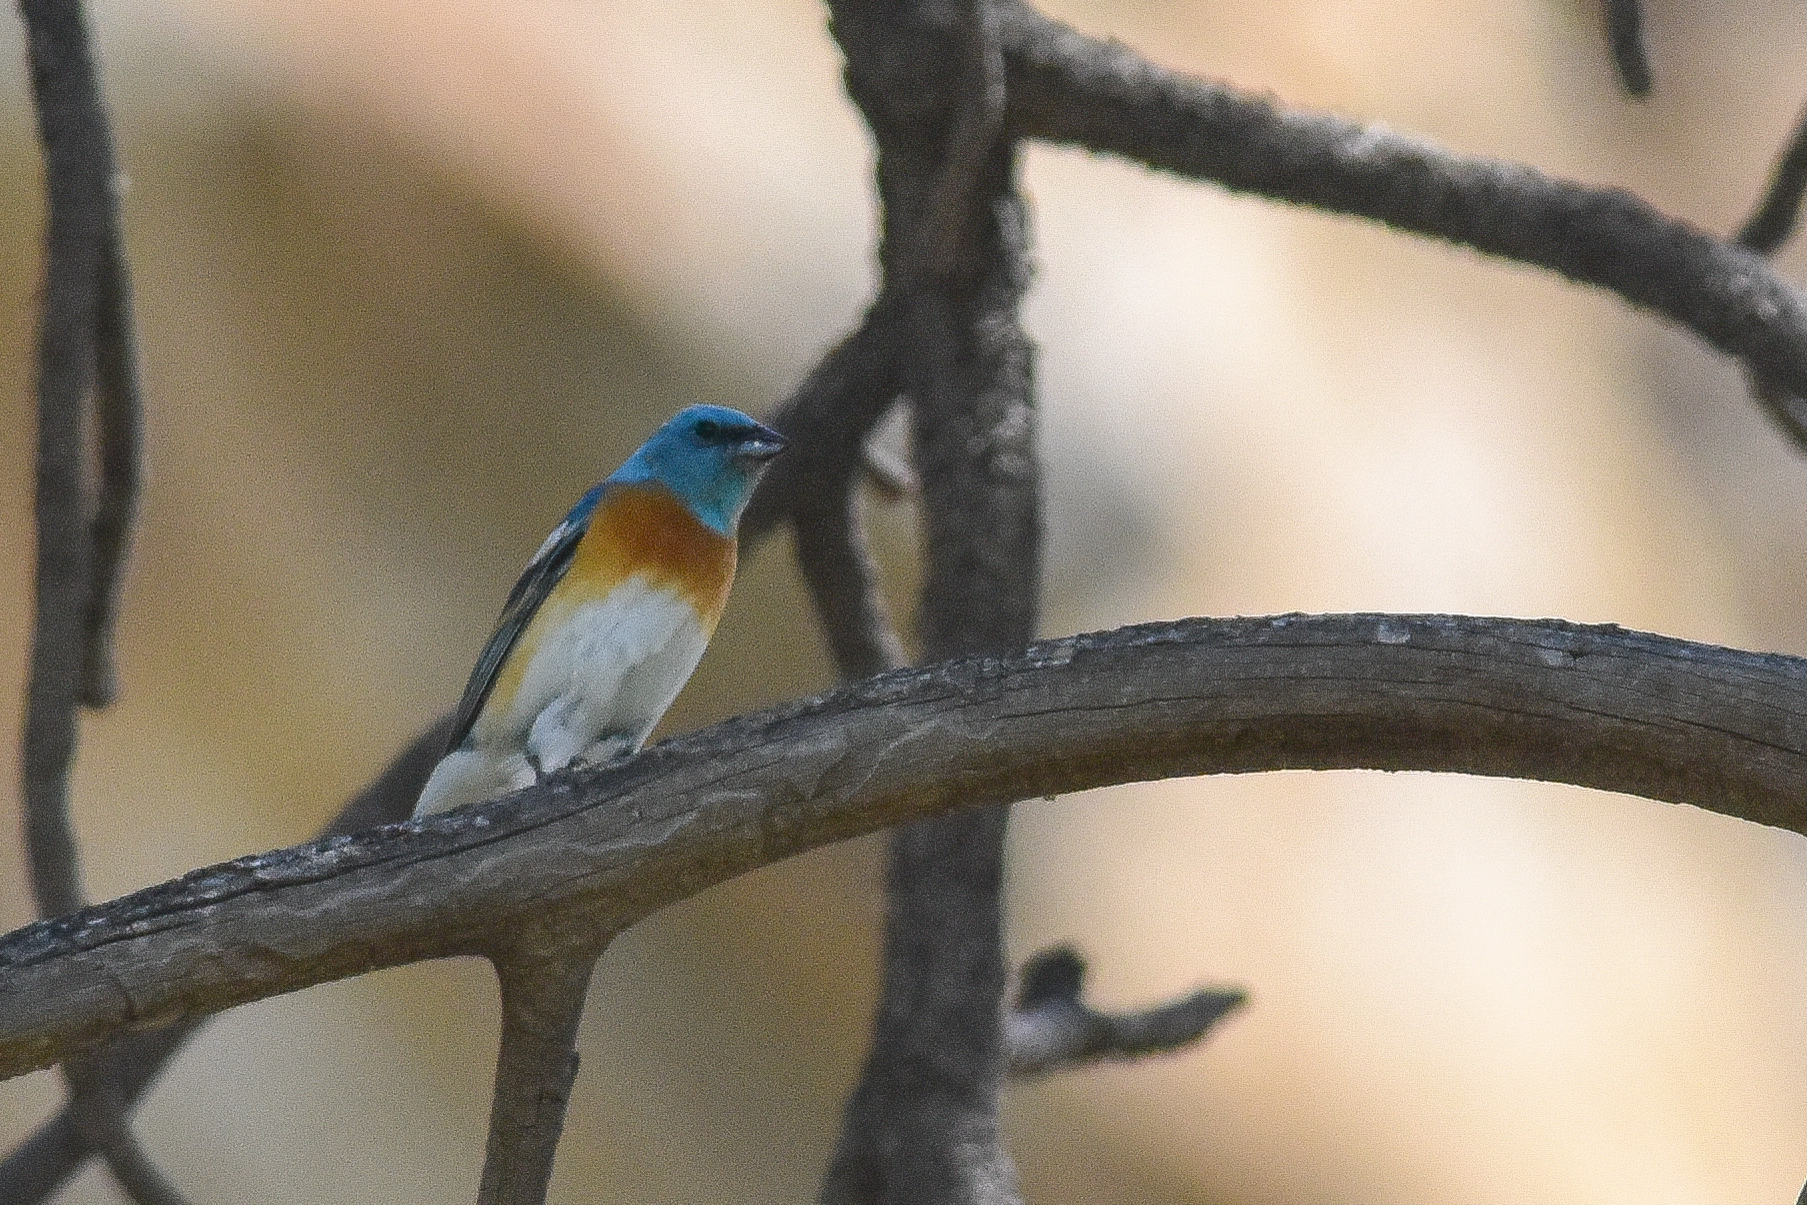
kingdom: Animalia
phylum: Chordata
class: Aves
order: Passeriformes
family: Cardinalidae
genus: Passerina
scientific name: Passerina amoena
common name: Lazuli bunting
